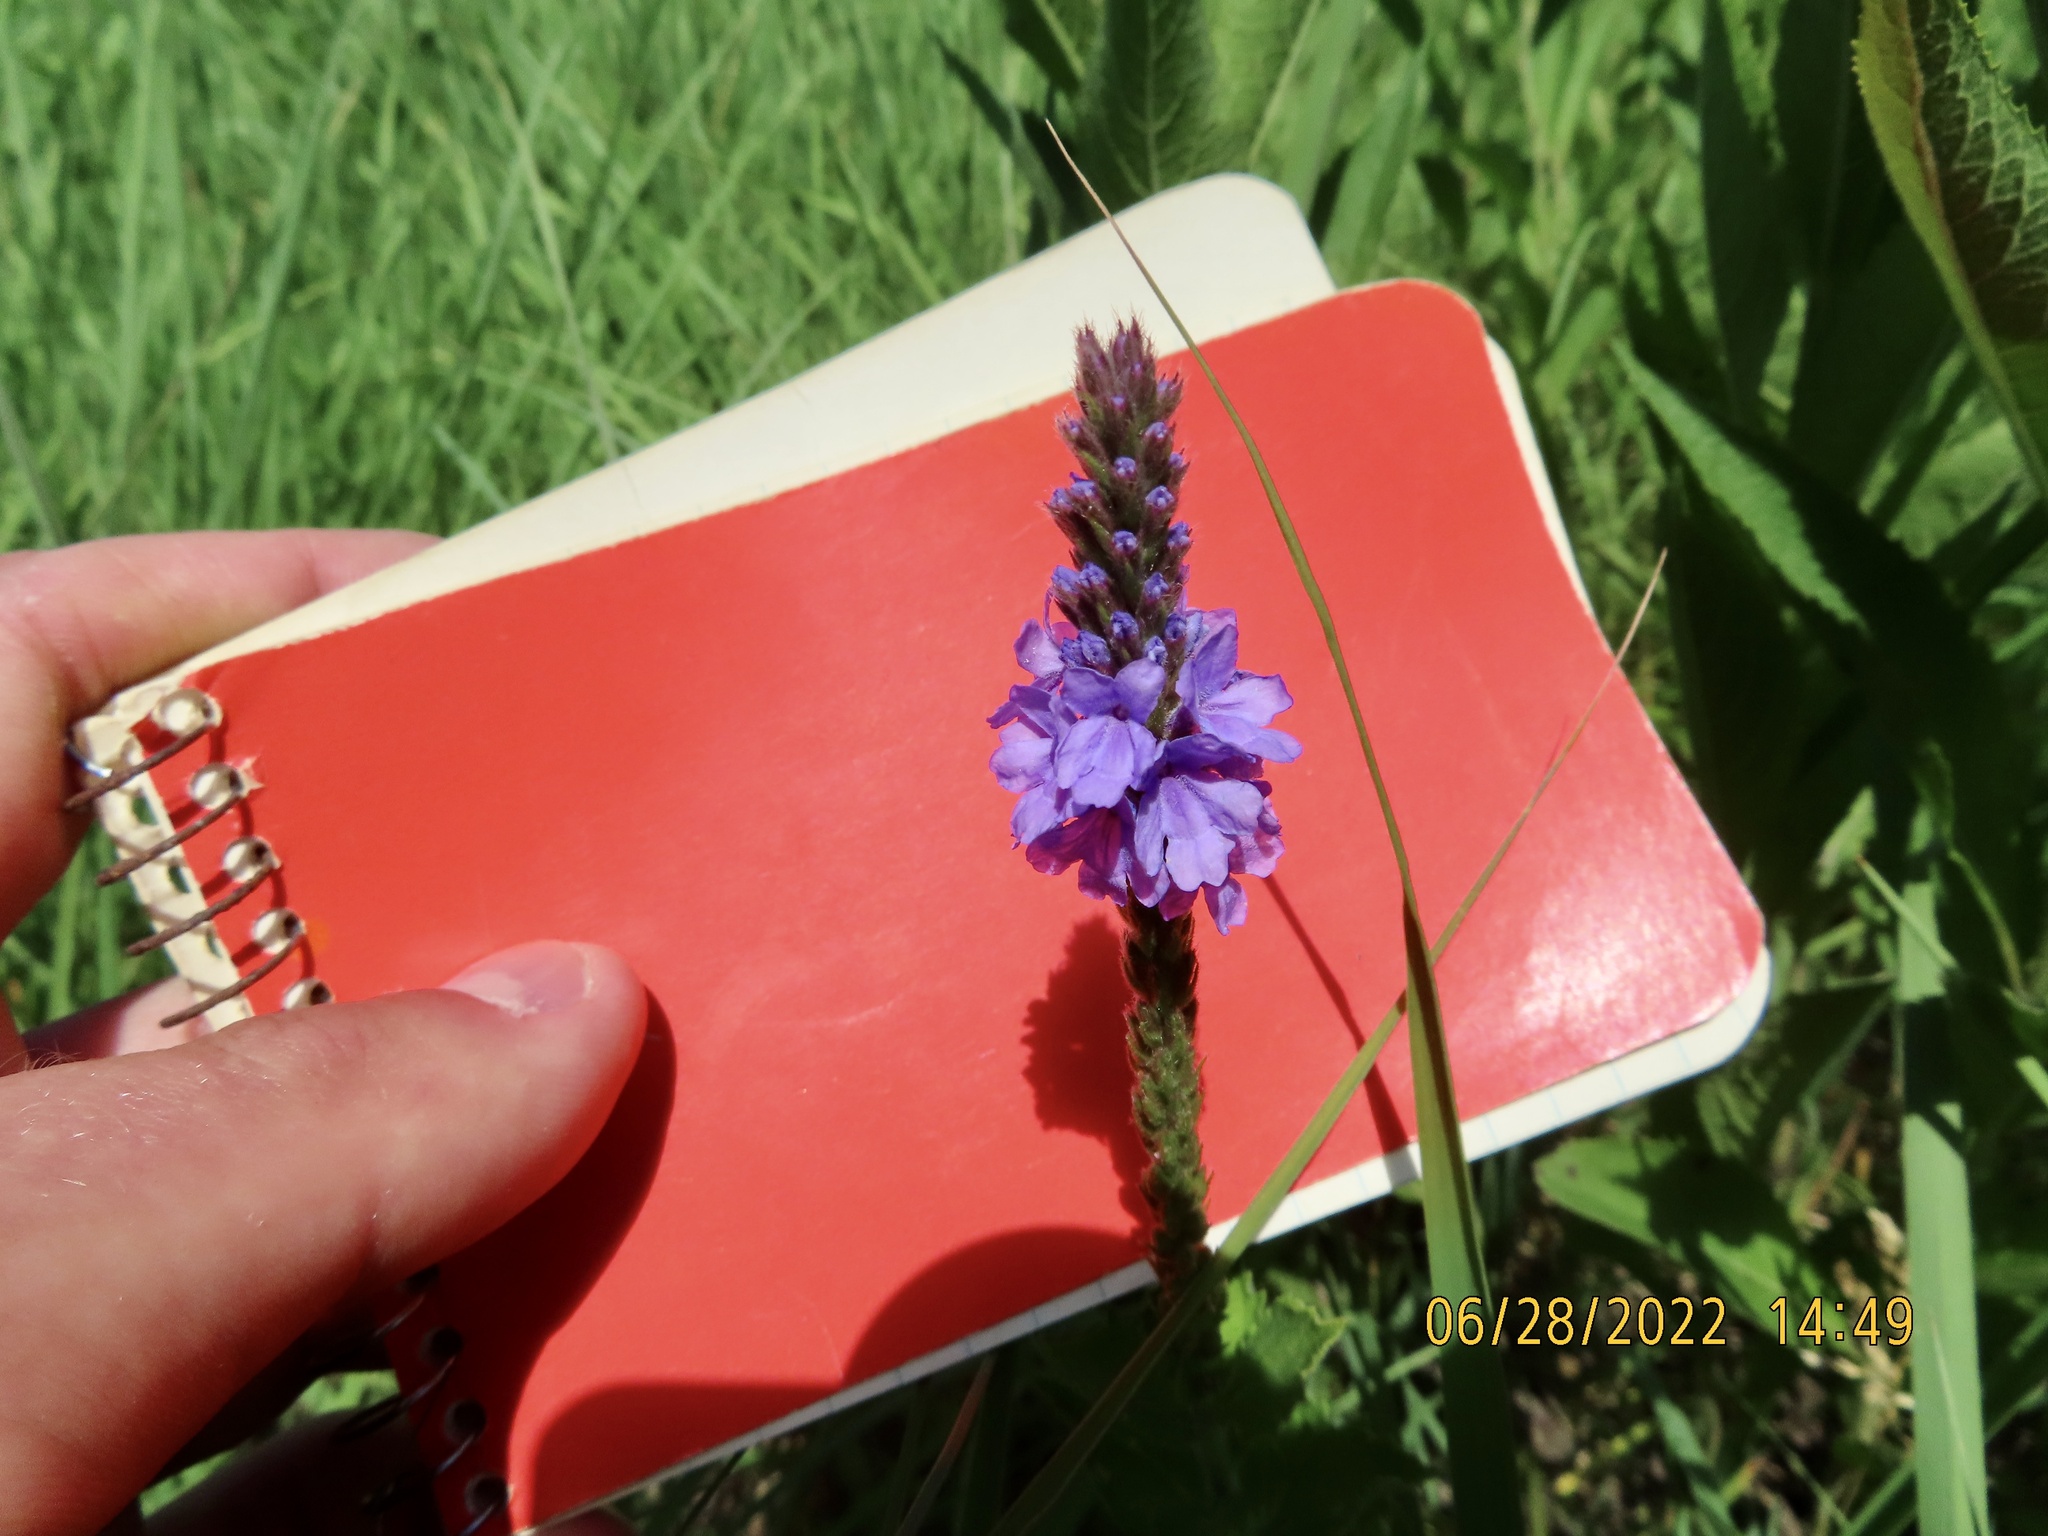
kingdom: Plantae
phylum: Tracheophyta
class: Magnoliopsida
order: Lamiales
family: Verbenaceae
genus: Verbena
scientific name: Verbena stricta
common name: Hoary vervain
